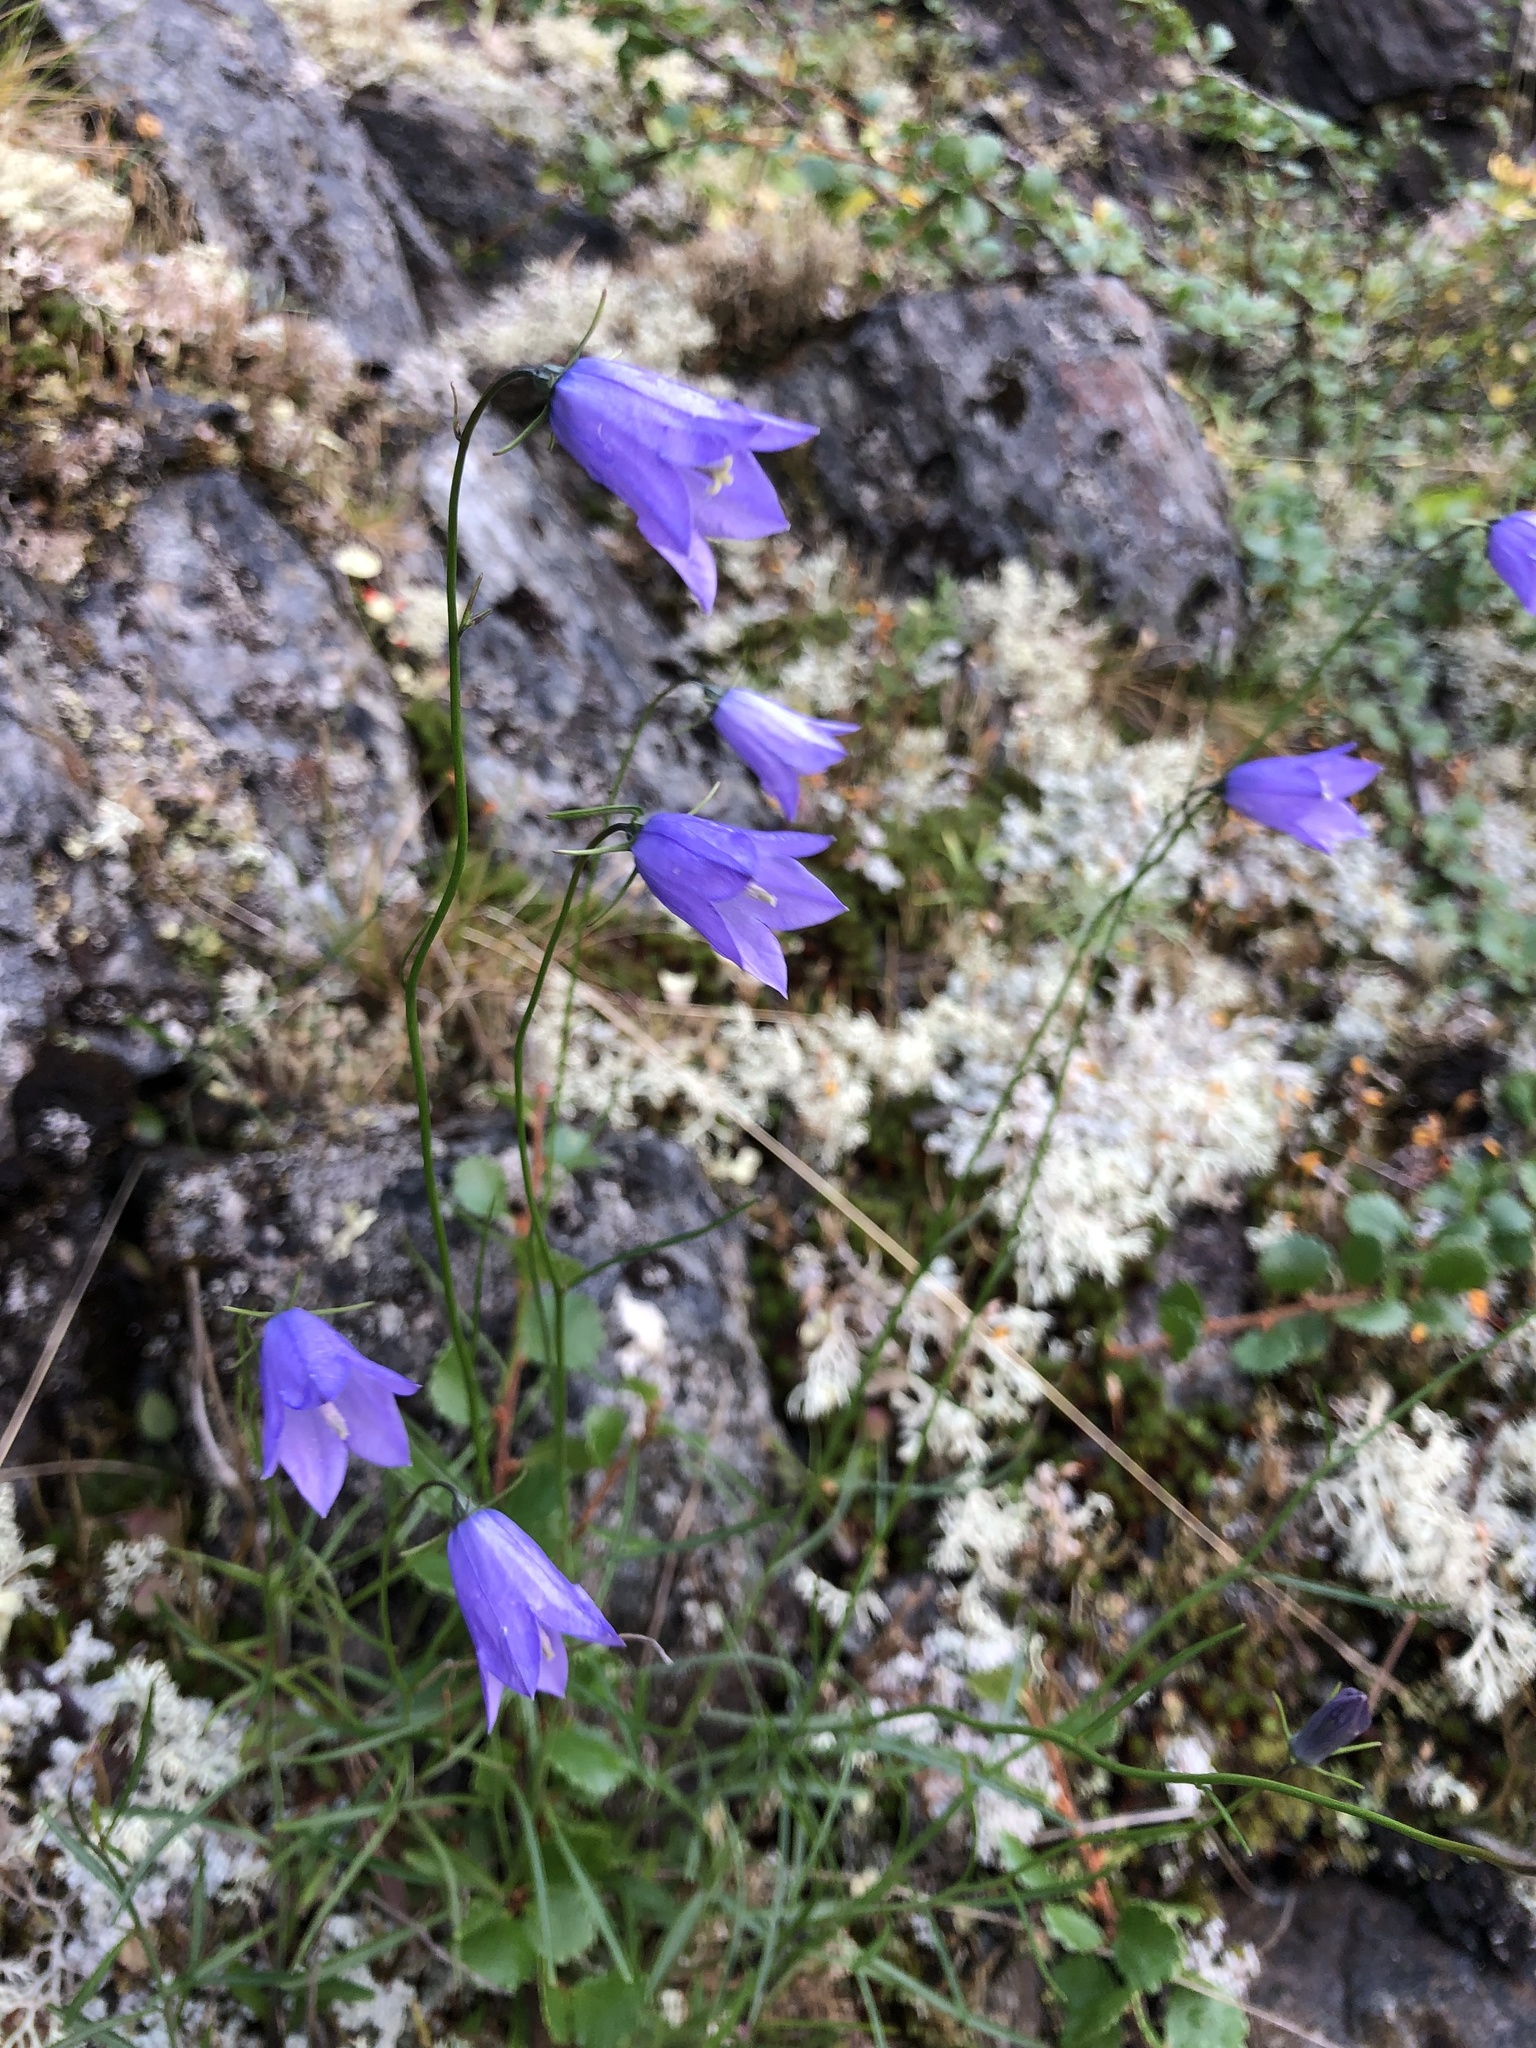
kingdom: Plantae
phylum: Tracheophyta
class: Magnoliopsida
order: Asterales
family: Campanulaceae
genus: Campanula
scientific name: Campanula rotundifolia
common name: Harebell
